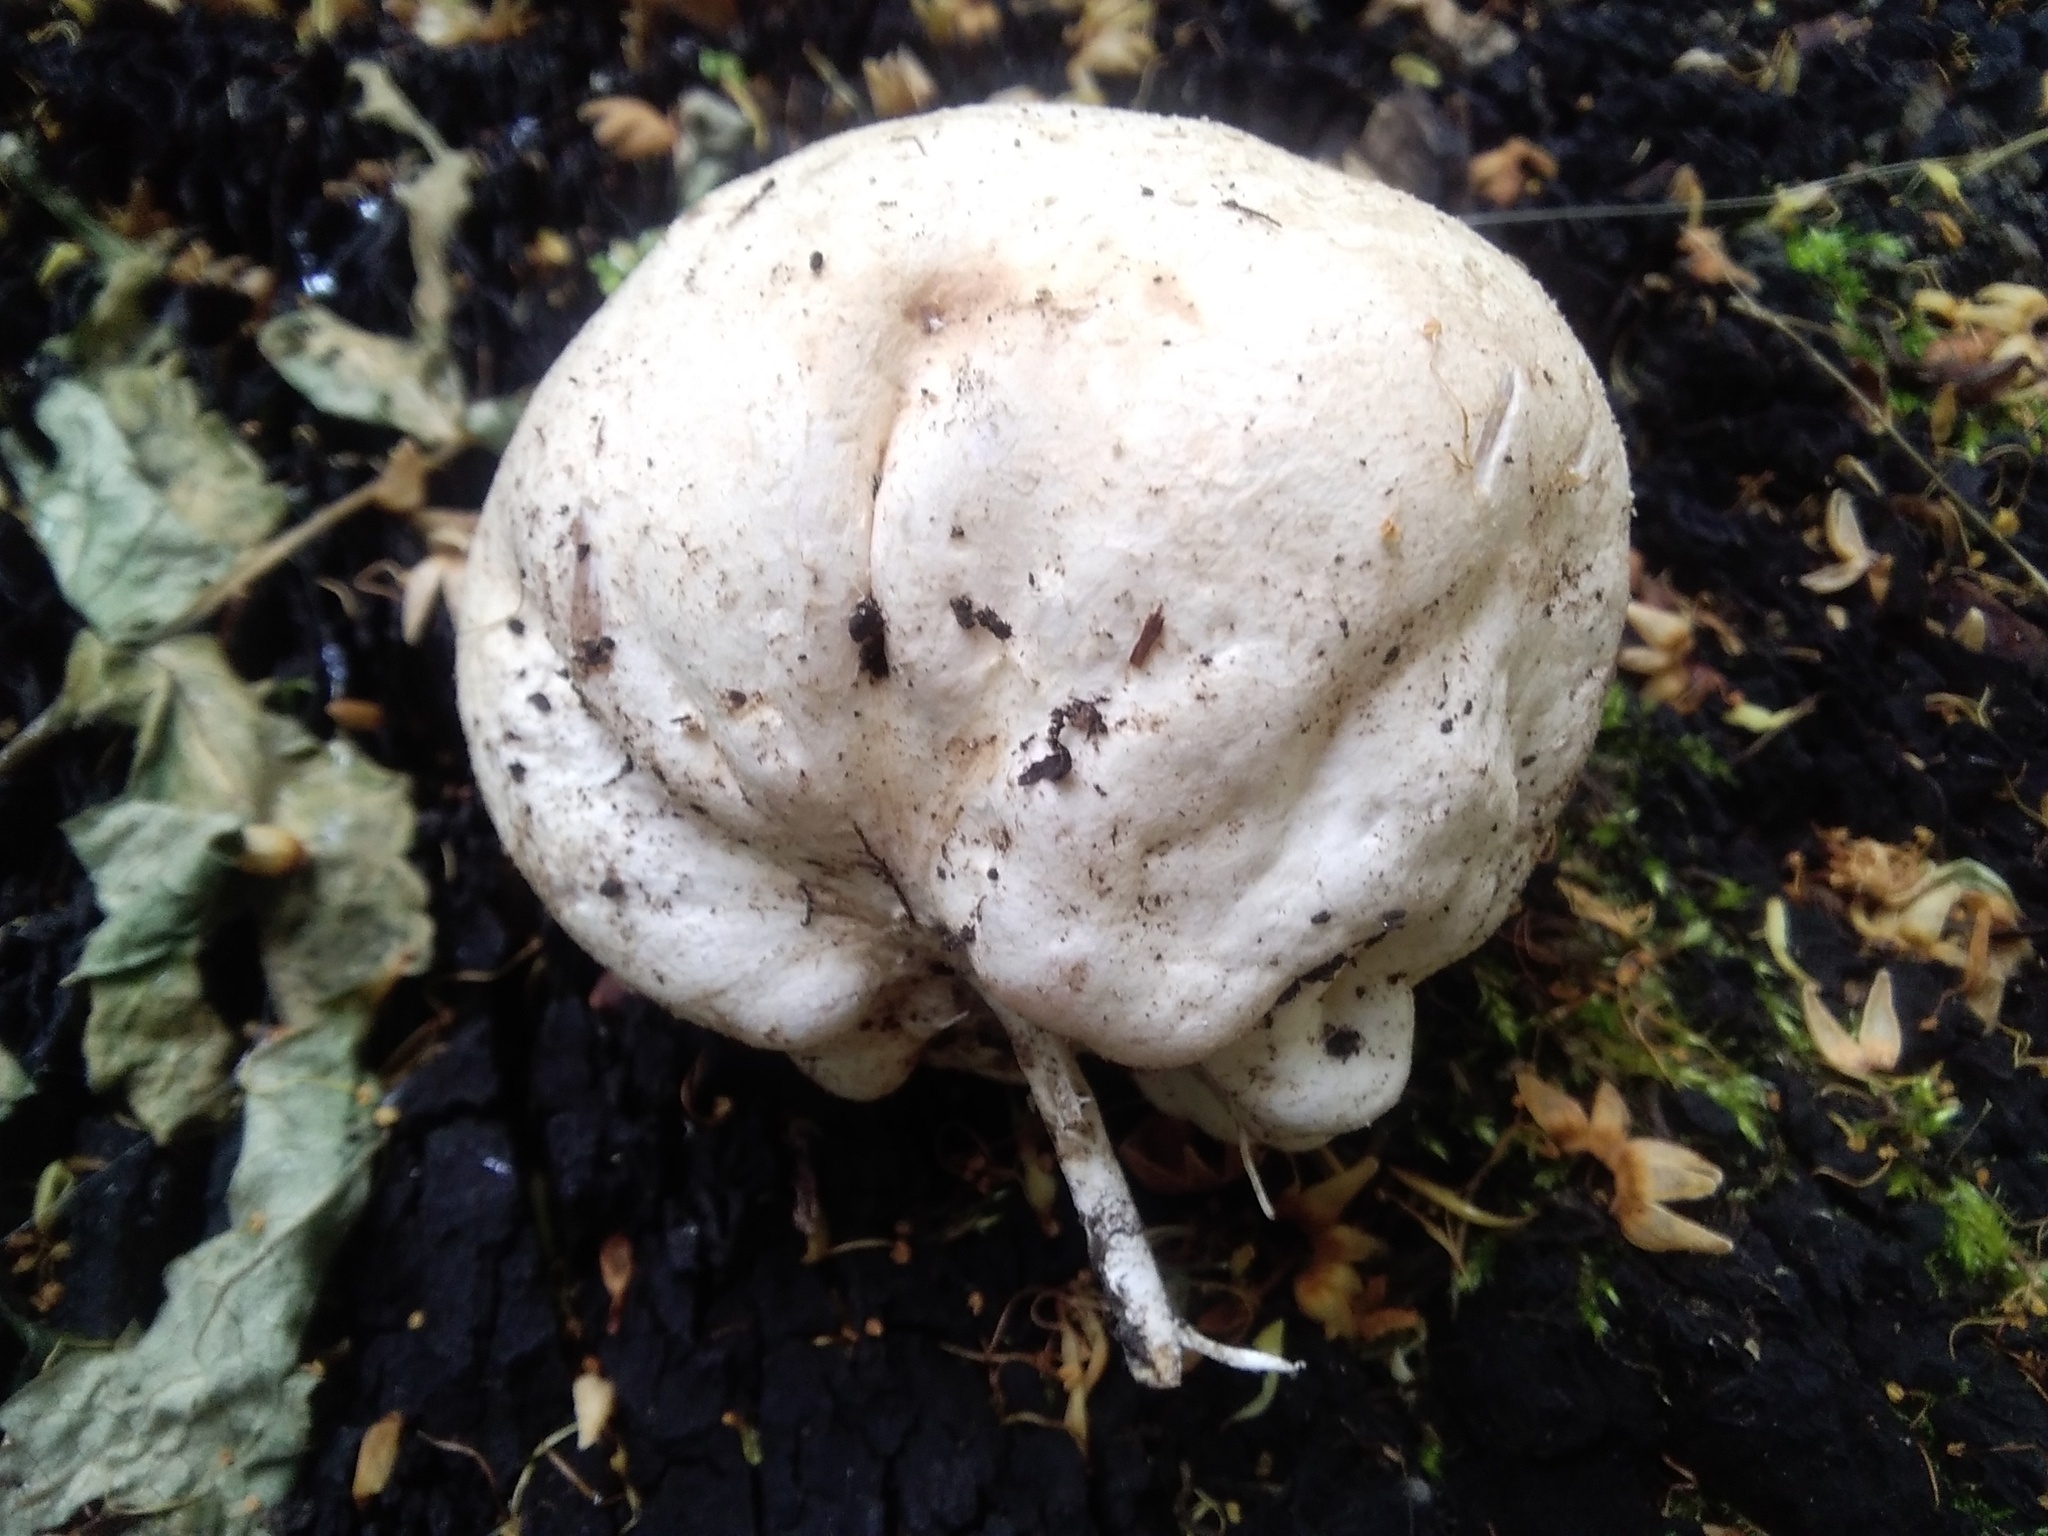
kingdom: Fungi
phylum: Basidiomycota
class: Agaricomycetes
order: Phallales
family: Phallaceae
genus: Phallus
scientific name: Phallus impudicus
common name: Common stinkhorn
